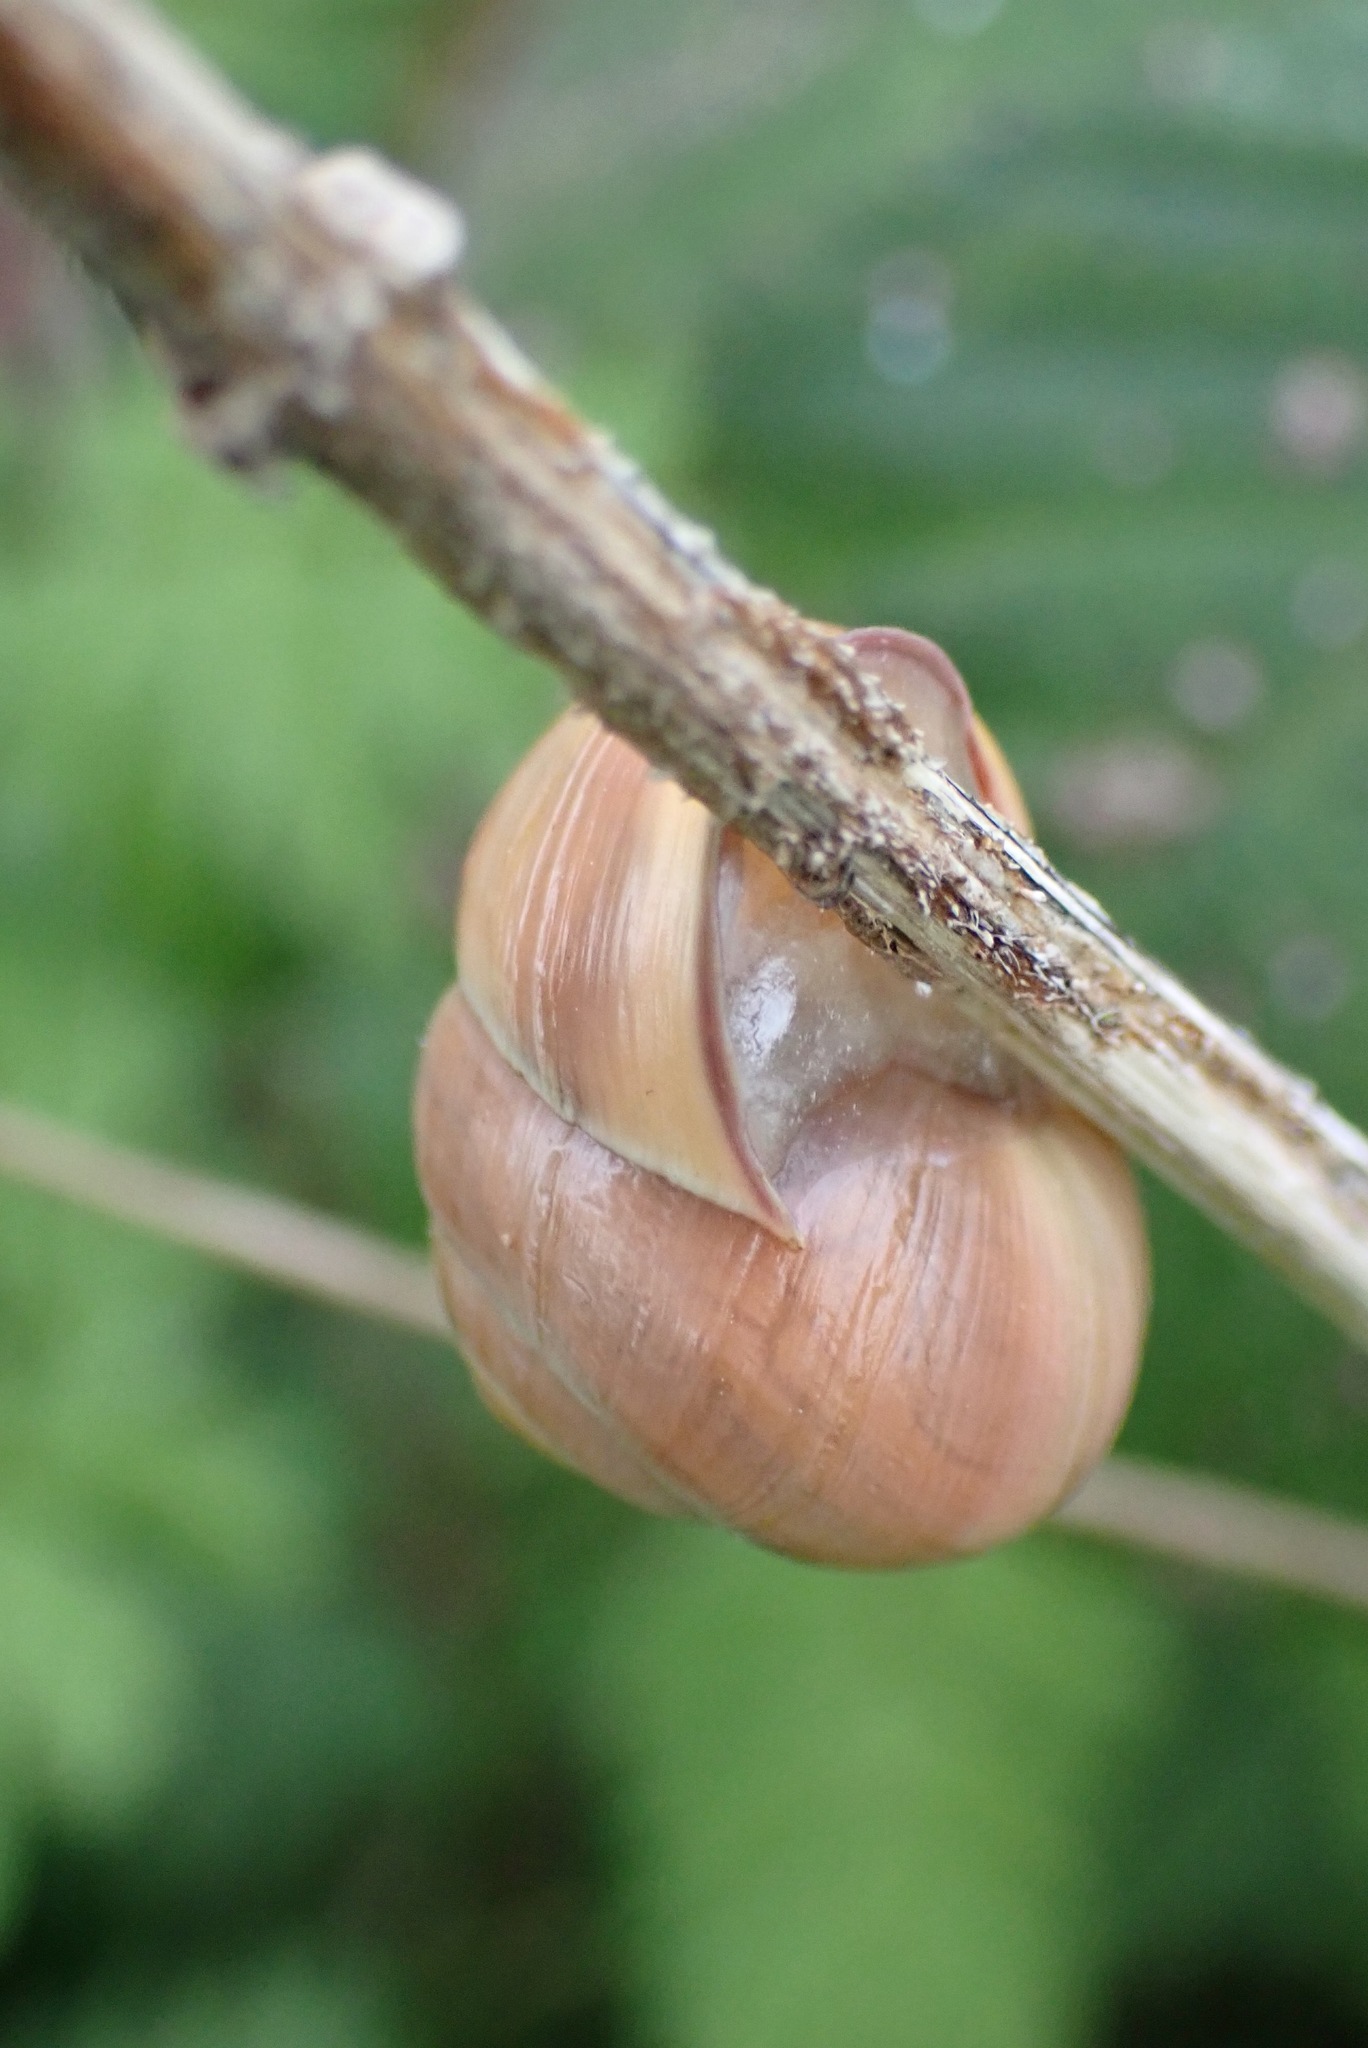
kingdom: Animalia
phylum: Mollusca
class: Gastropoda
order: Stylommatophora
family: Helicidae
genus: Cepaea
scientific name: Cepaea nemoralis
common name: Grovesnail
